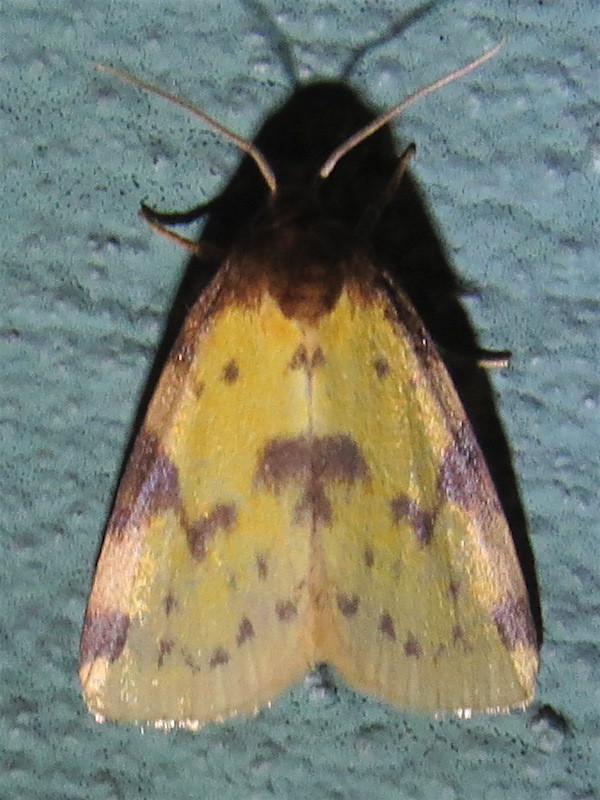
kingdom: Animalia
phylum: Arthropoda
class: Insecta
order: Lepidoptera
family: Noctuidae
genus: Azenia
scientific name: Azenia obtusa
